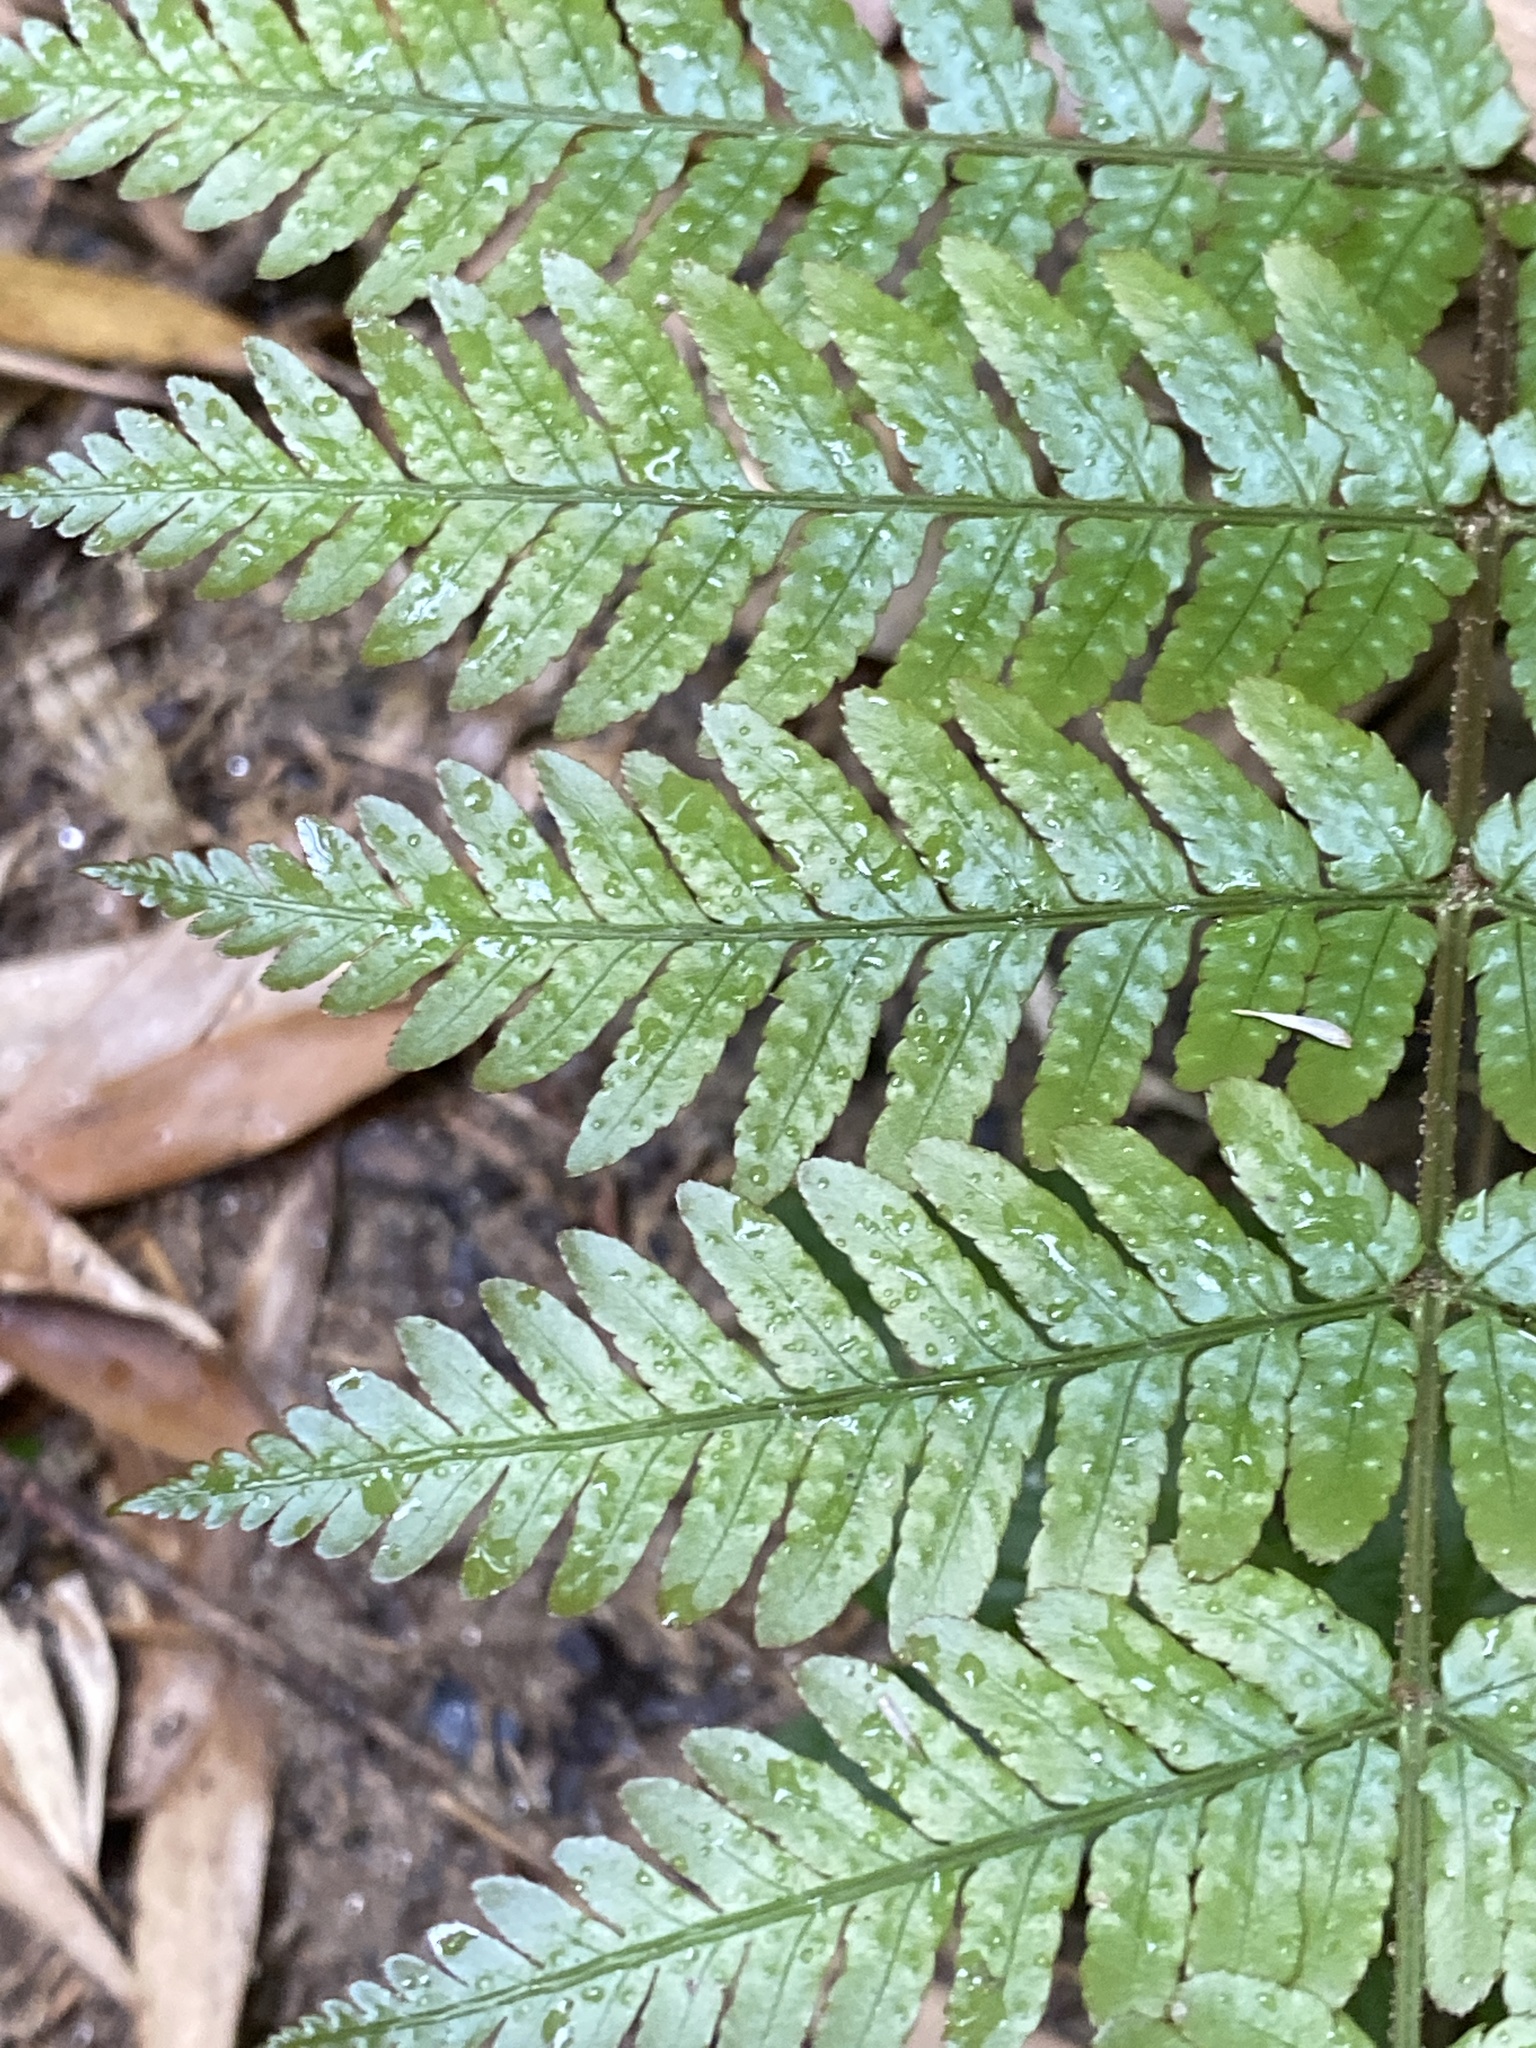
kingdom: Plantae
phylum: Tracheophyta
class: Polypodiopsida
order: Polypodiales
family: Dryopteridaceae
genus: Dryopteris
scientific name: Dryopteris erythrosora
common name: Autumn fern
